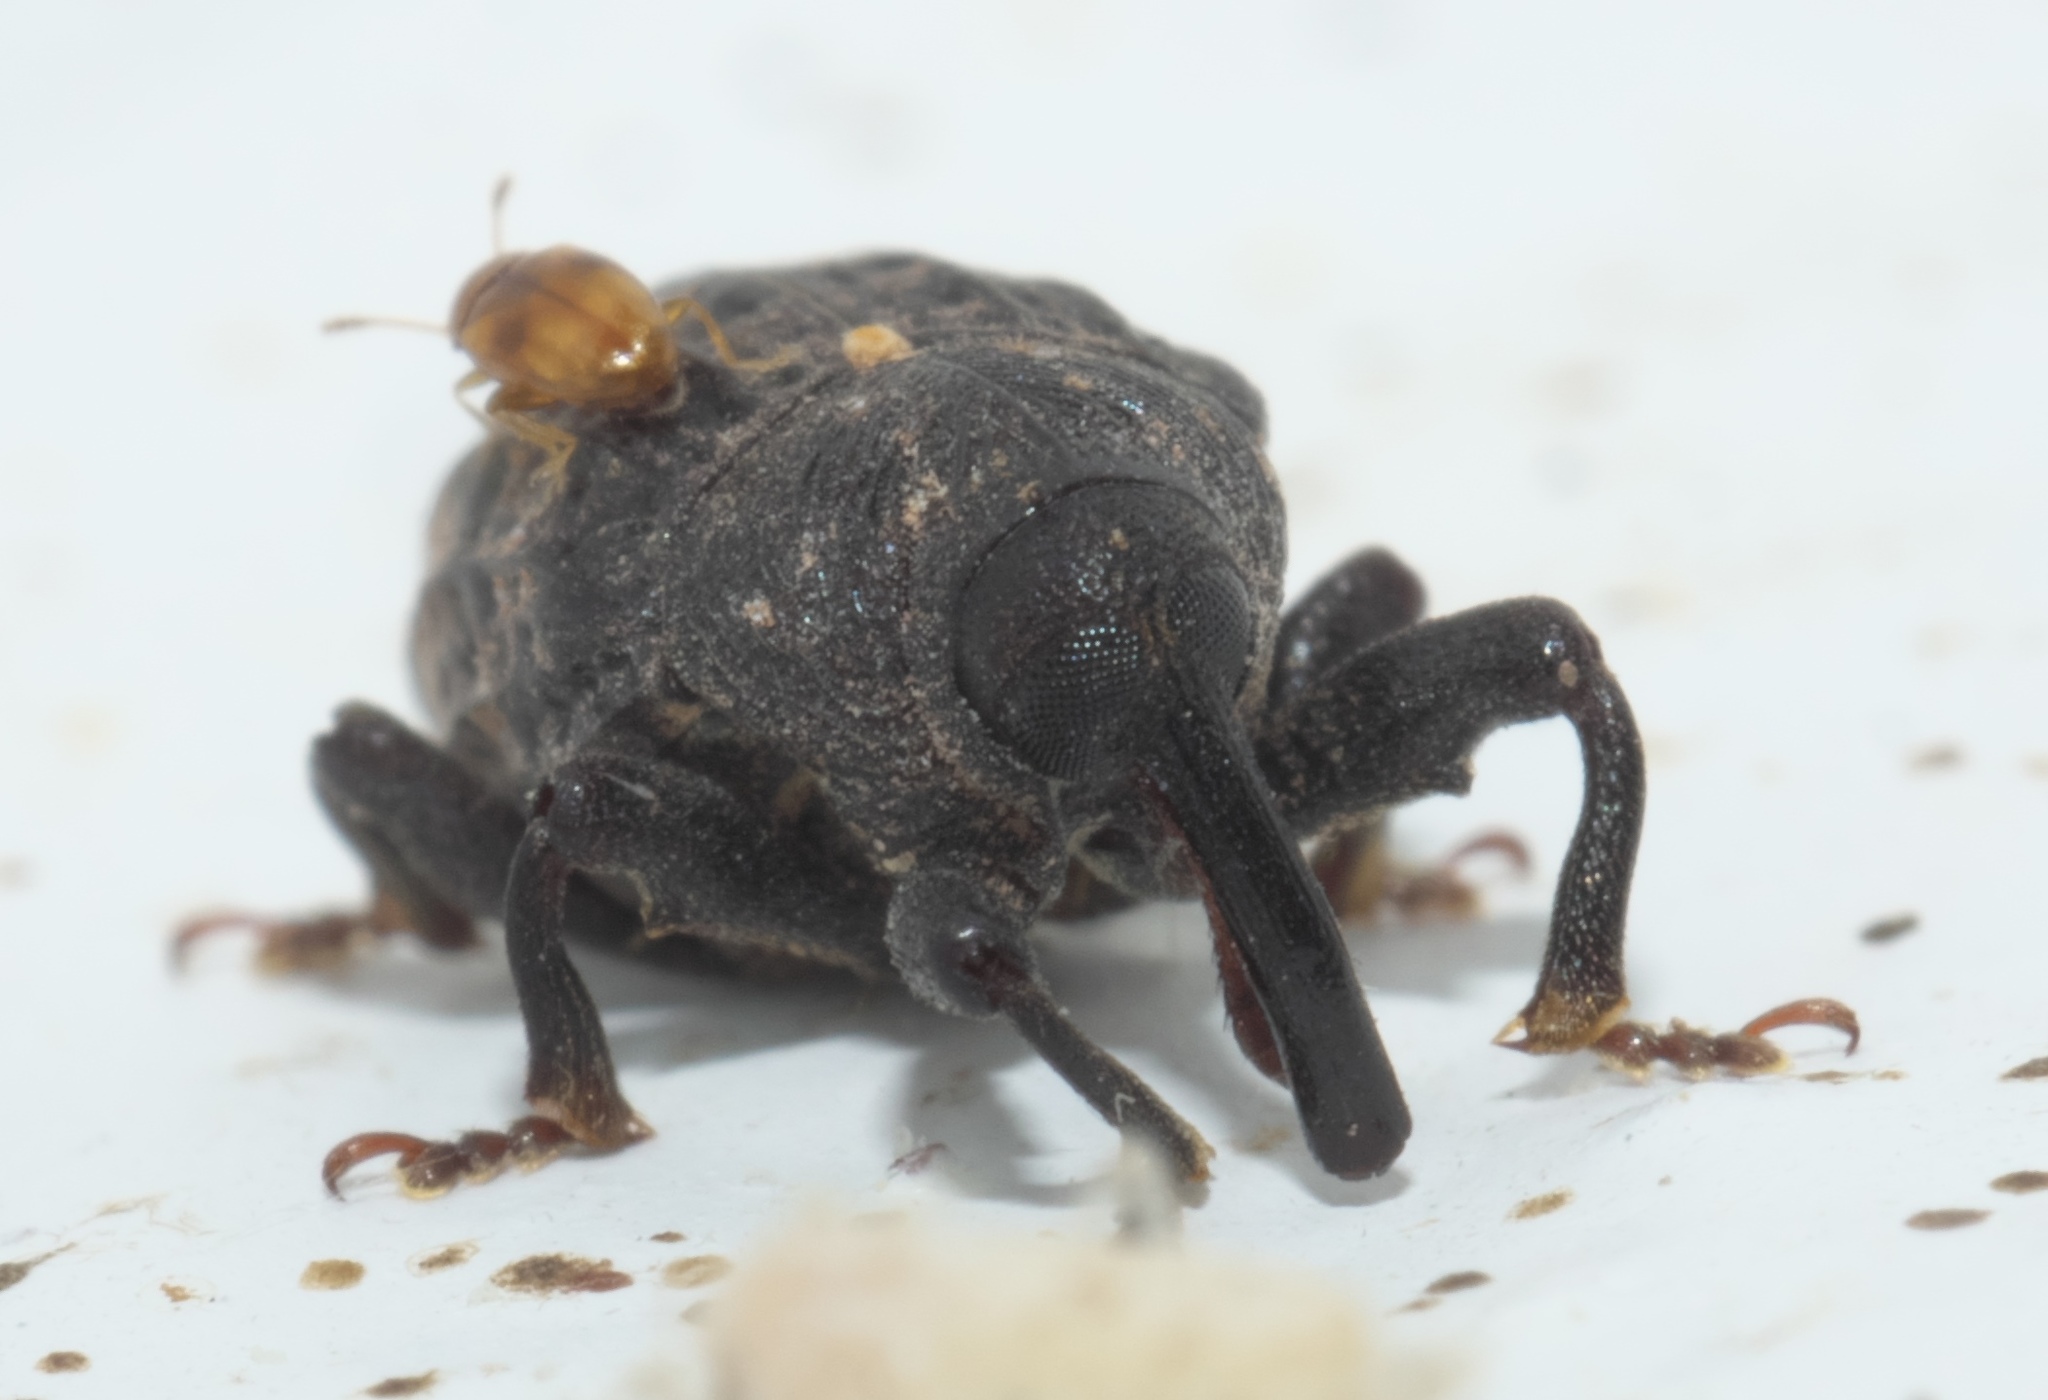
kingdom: Animalia
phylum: Arthropoda
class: Insecta
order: Coleoptera
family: Curculionidae
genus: Rhyssomatus
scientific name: Rhyssomatus palmacollis
